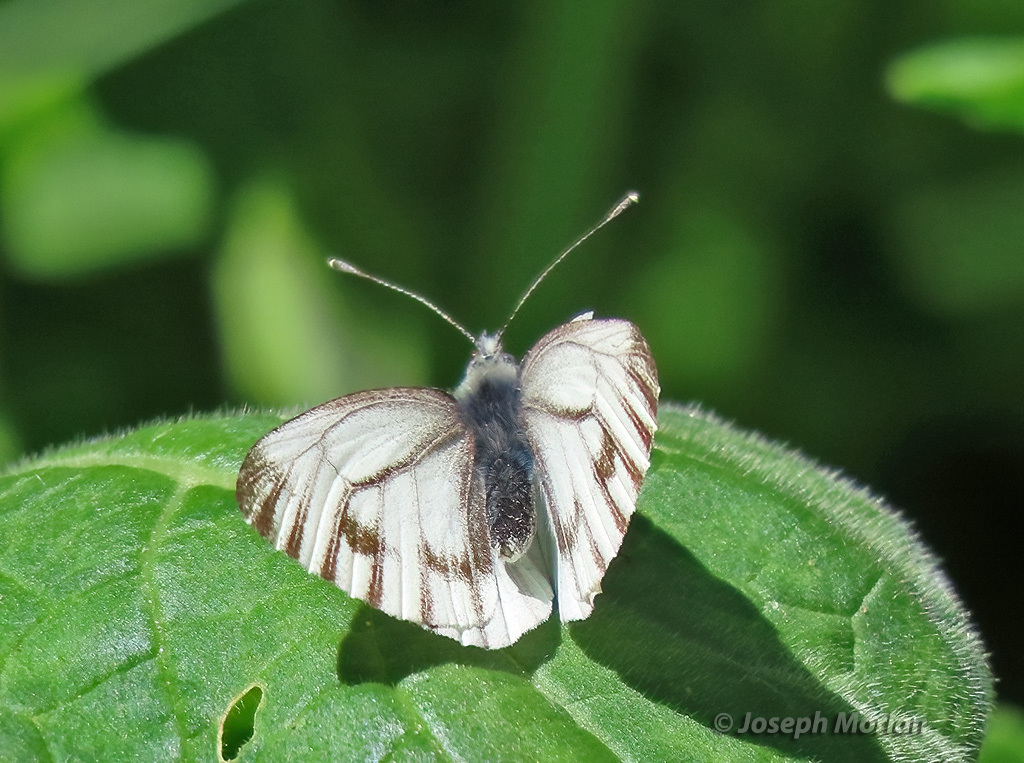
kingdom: Animalia
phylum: Arthropoda
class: Insecta
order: Lepidoptera
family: Pieridae
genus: Pieris
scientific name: Pieris marginalis
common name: Margined white
